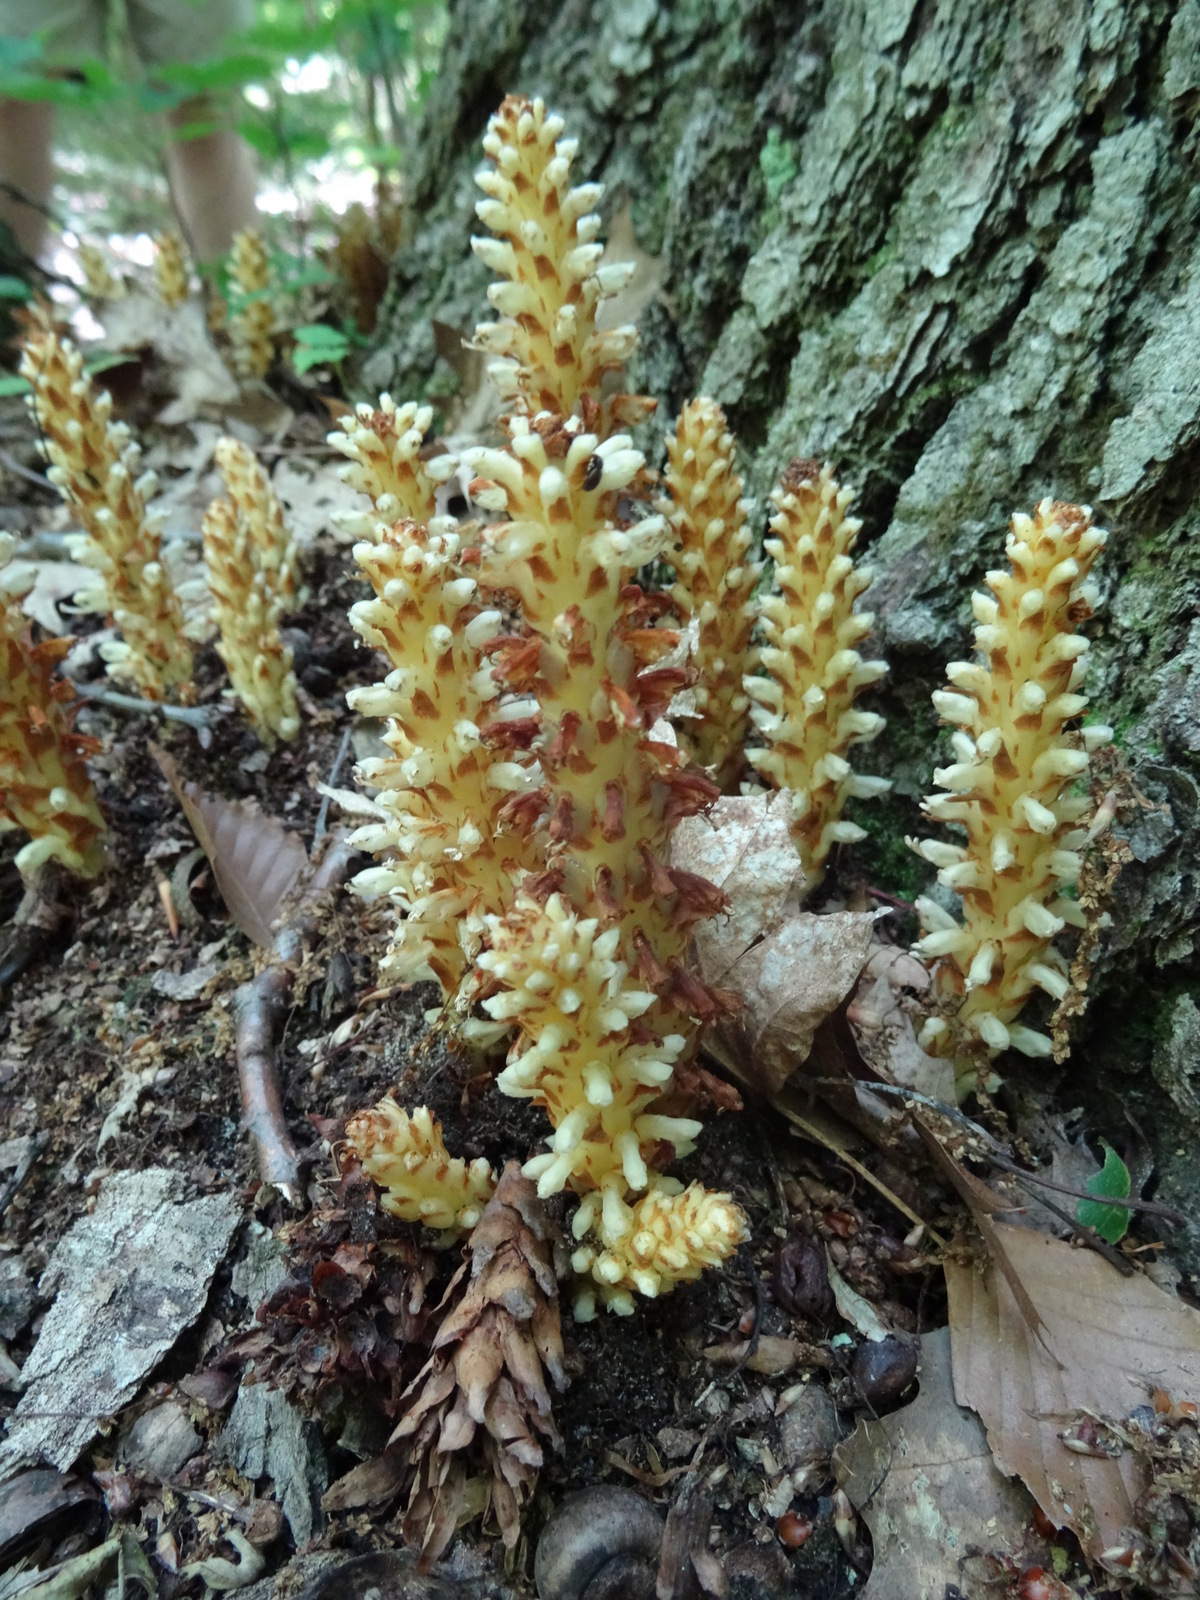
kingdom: Plantae
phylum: Tracheophyta
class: Magnoliopsida
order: Lamiales
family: Orobanchaceae
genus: Conopholis
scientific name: Conopholis americana
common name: American cancer-root
